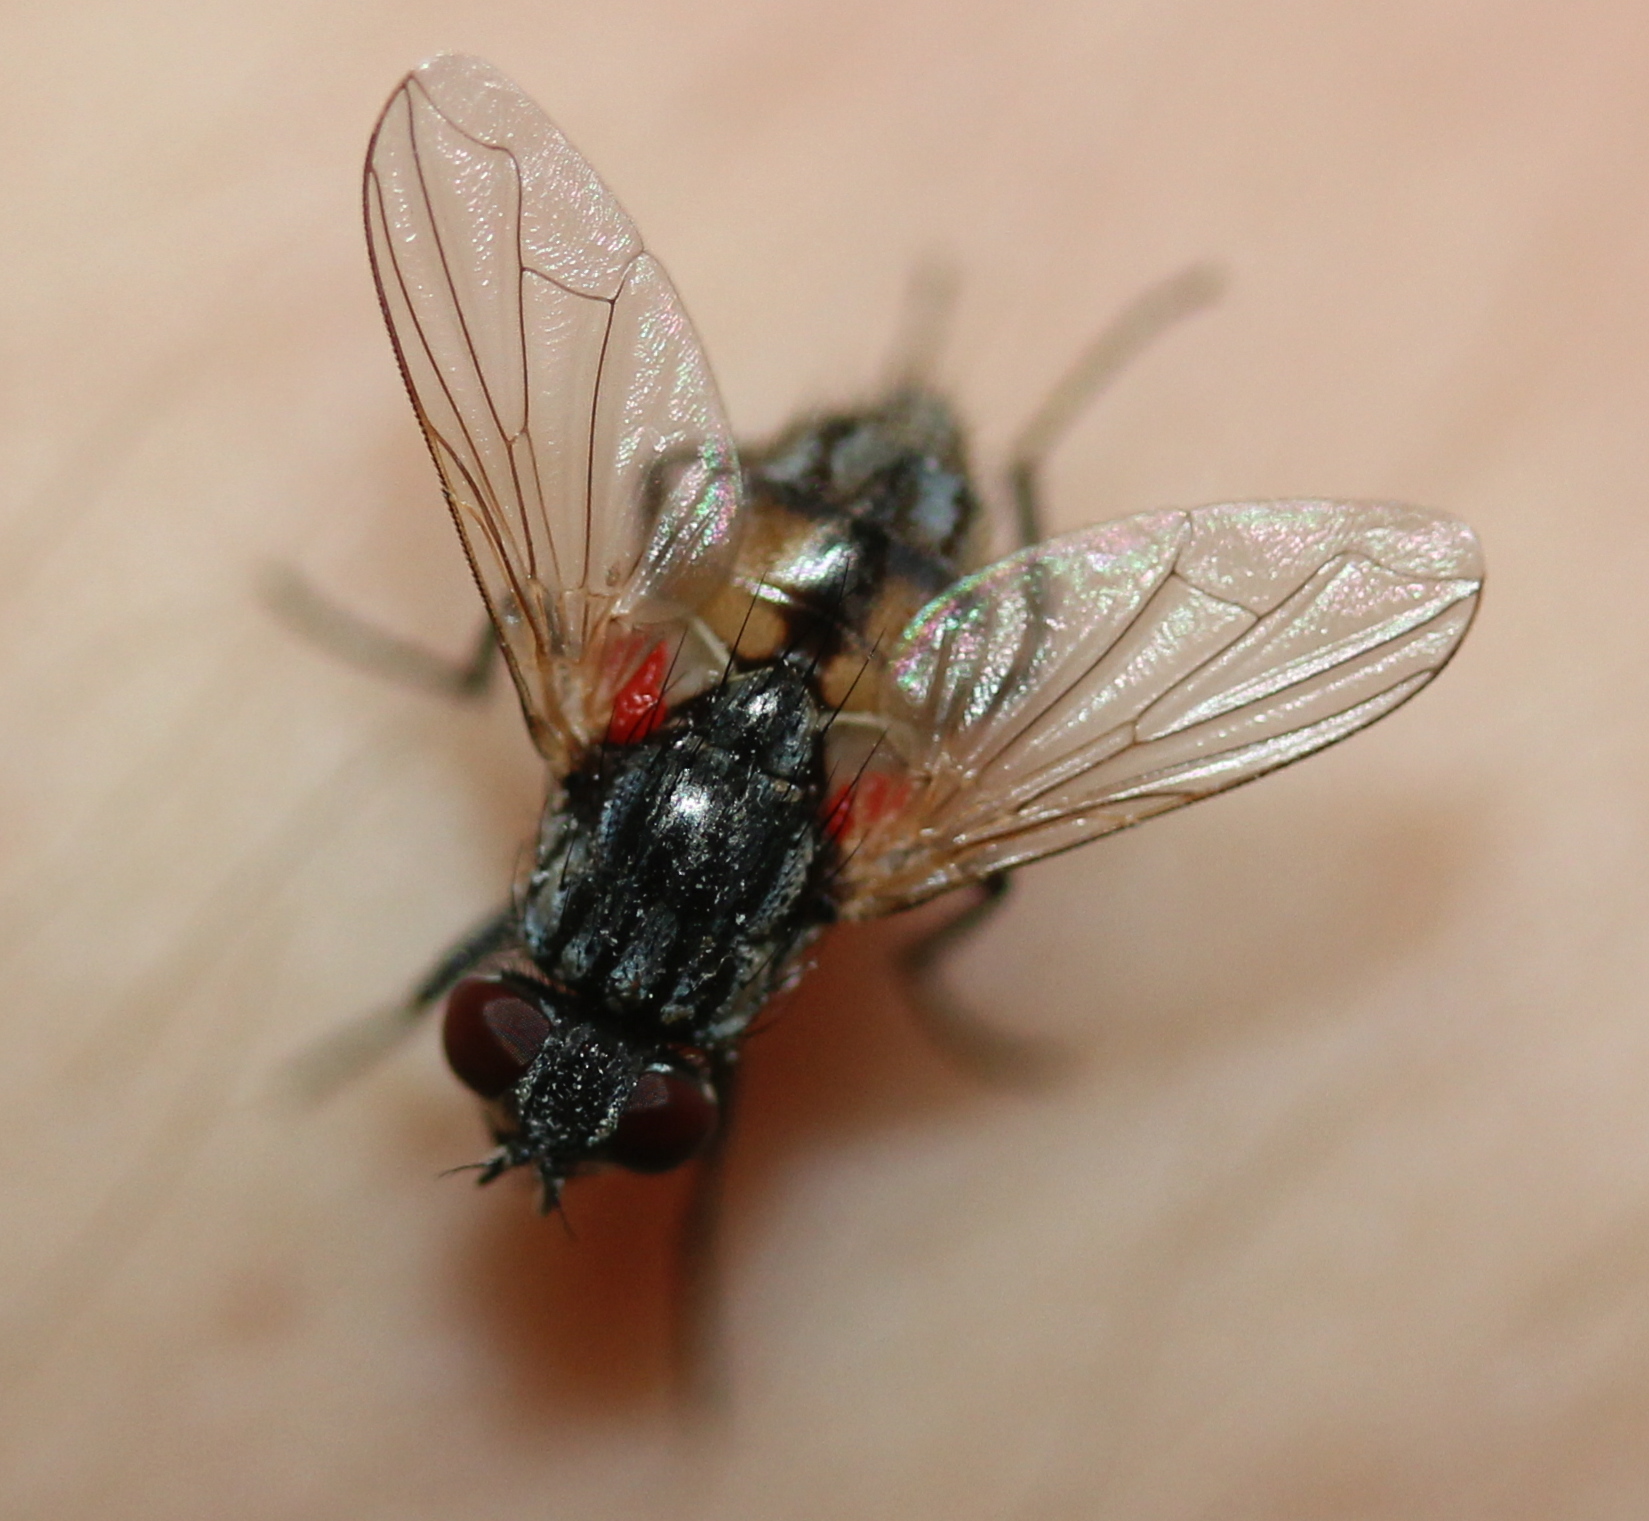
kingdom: Animalia
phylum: Arthropoda
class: Insecta
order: Diptera
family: Muscidae
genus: Musca
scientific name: Musca domestica
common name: House fly
